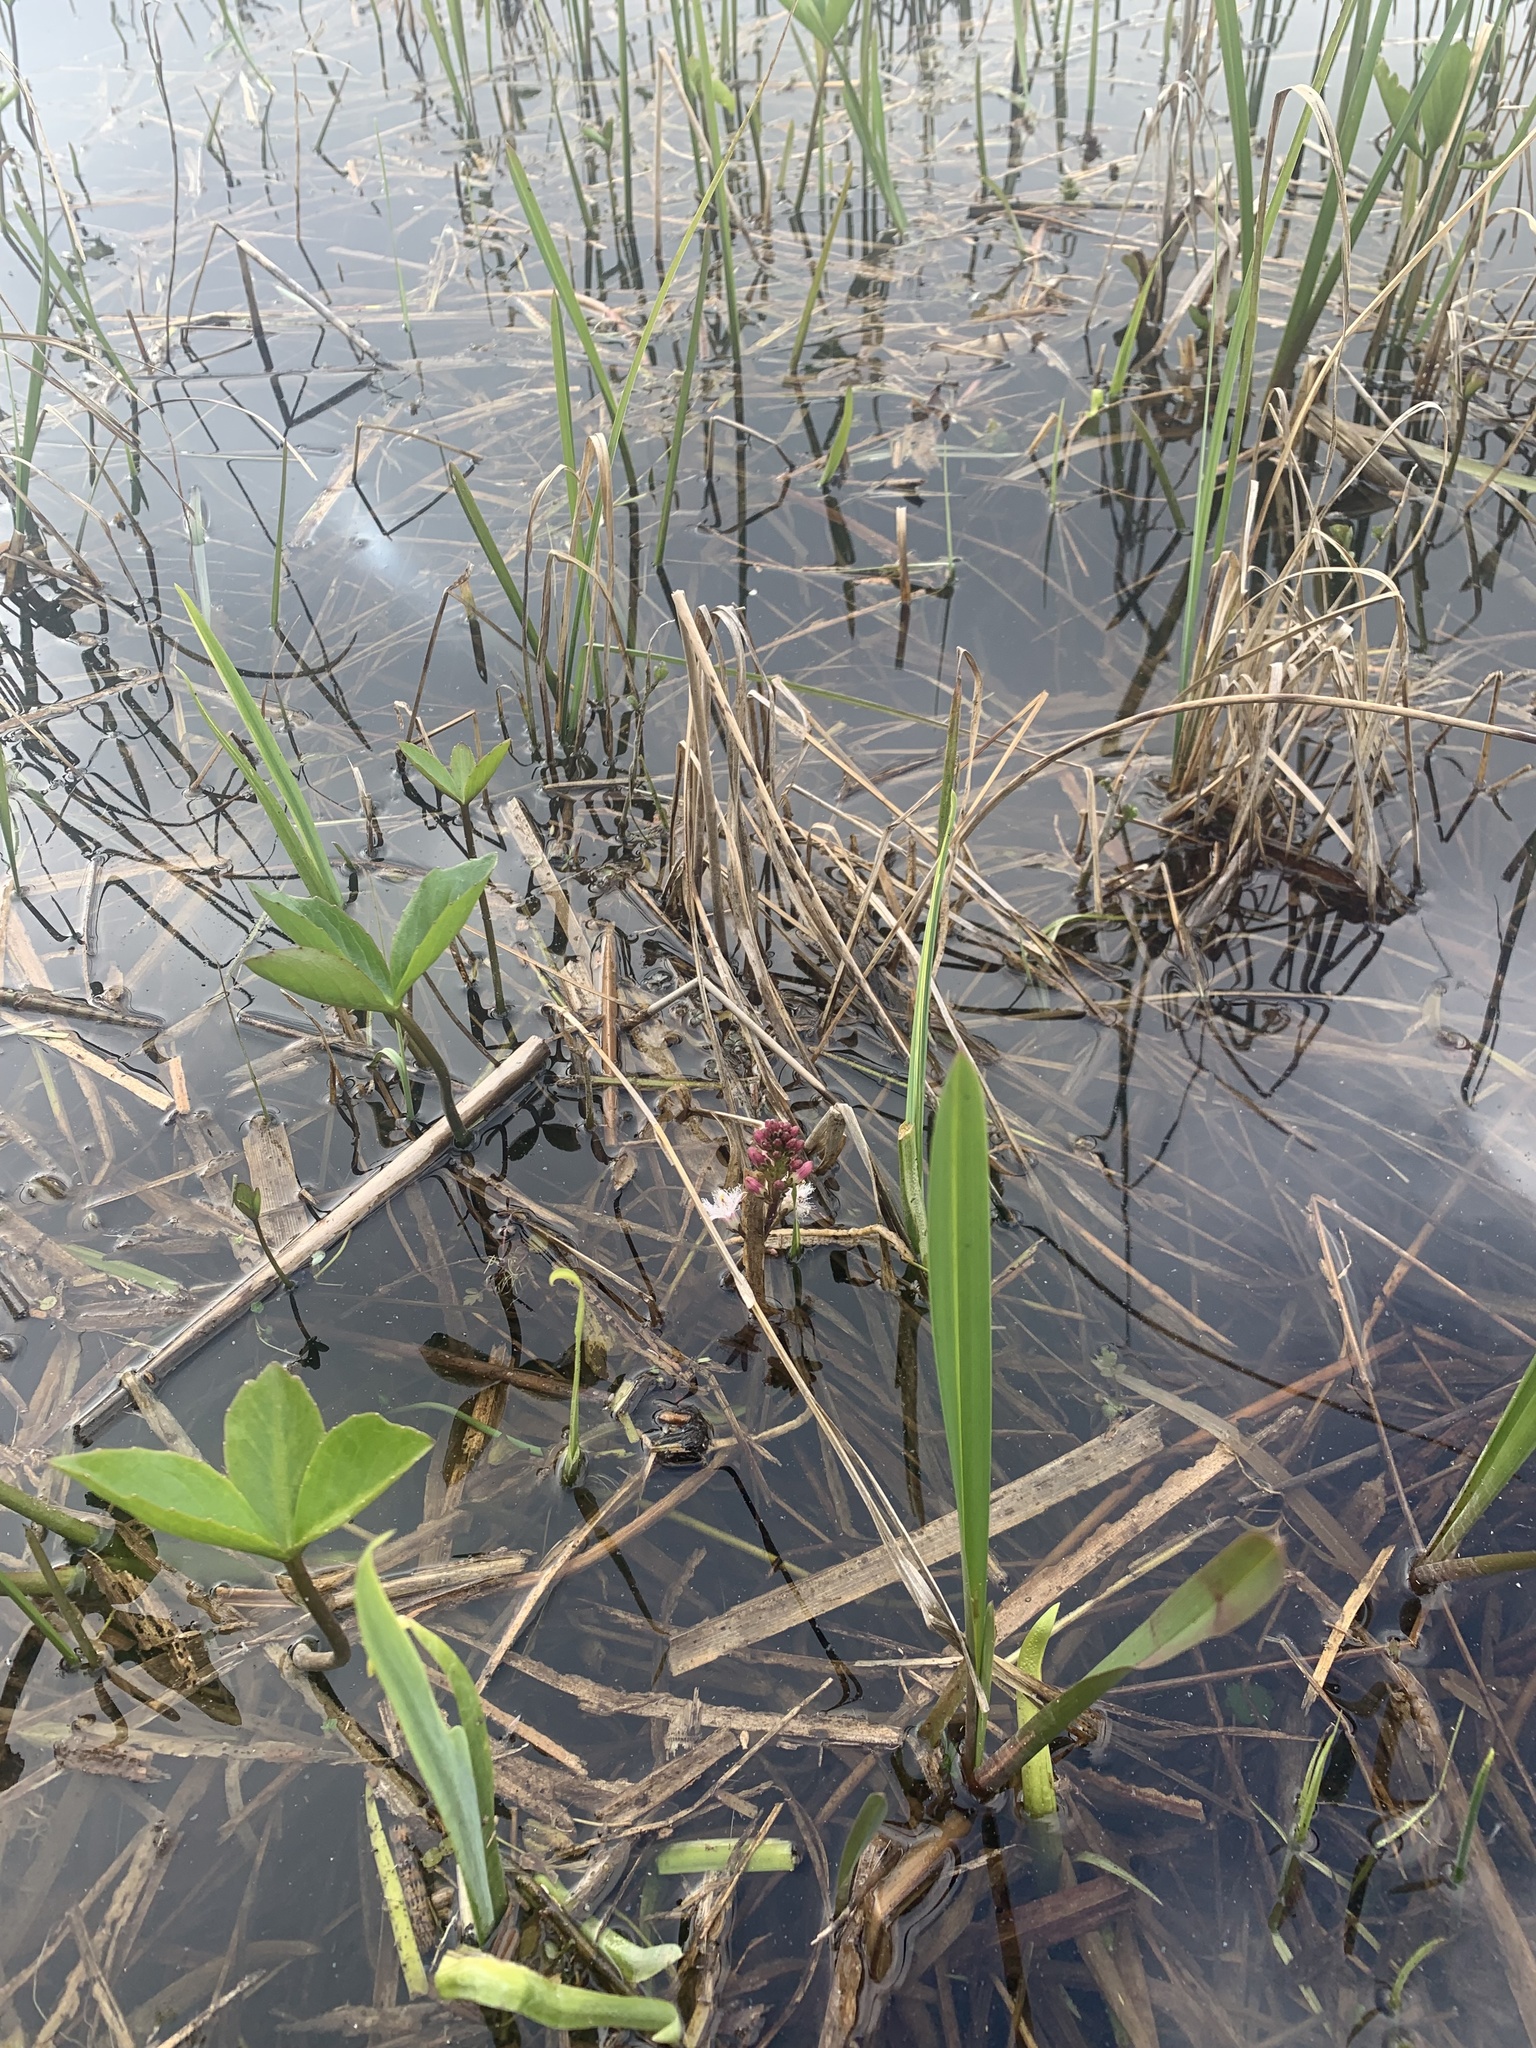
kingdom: Plantae
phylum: Tracheophyta
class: Magnoliopsida
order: Asterales
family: Menyanthaceae
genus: Menyanthes
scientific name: Menyanthes trifoliata
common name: Bogbean
